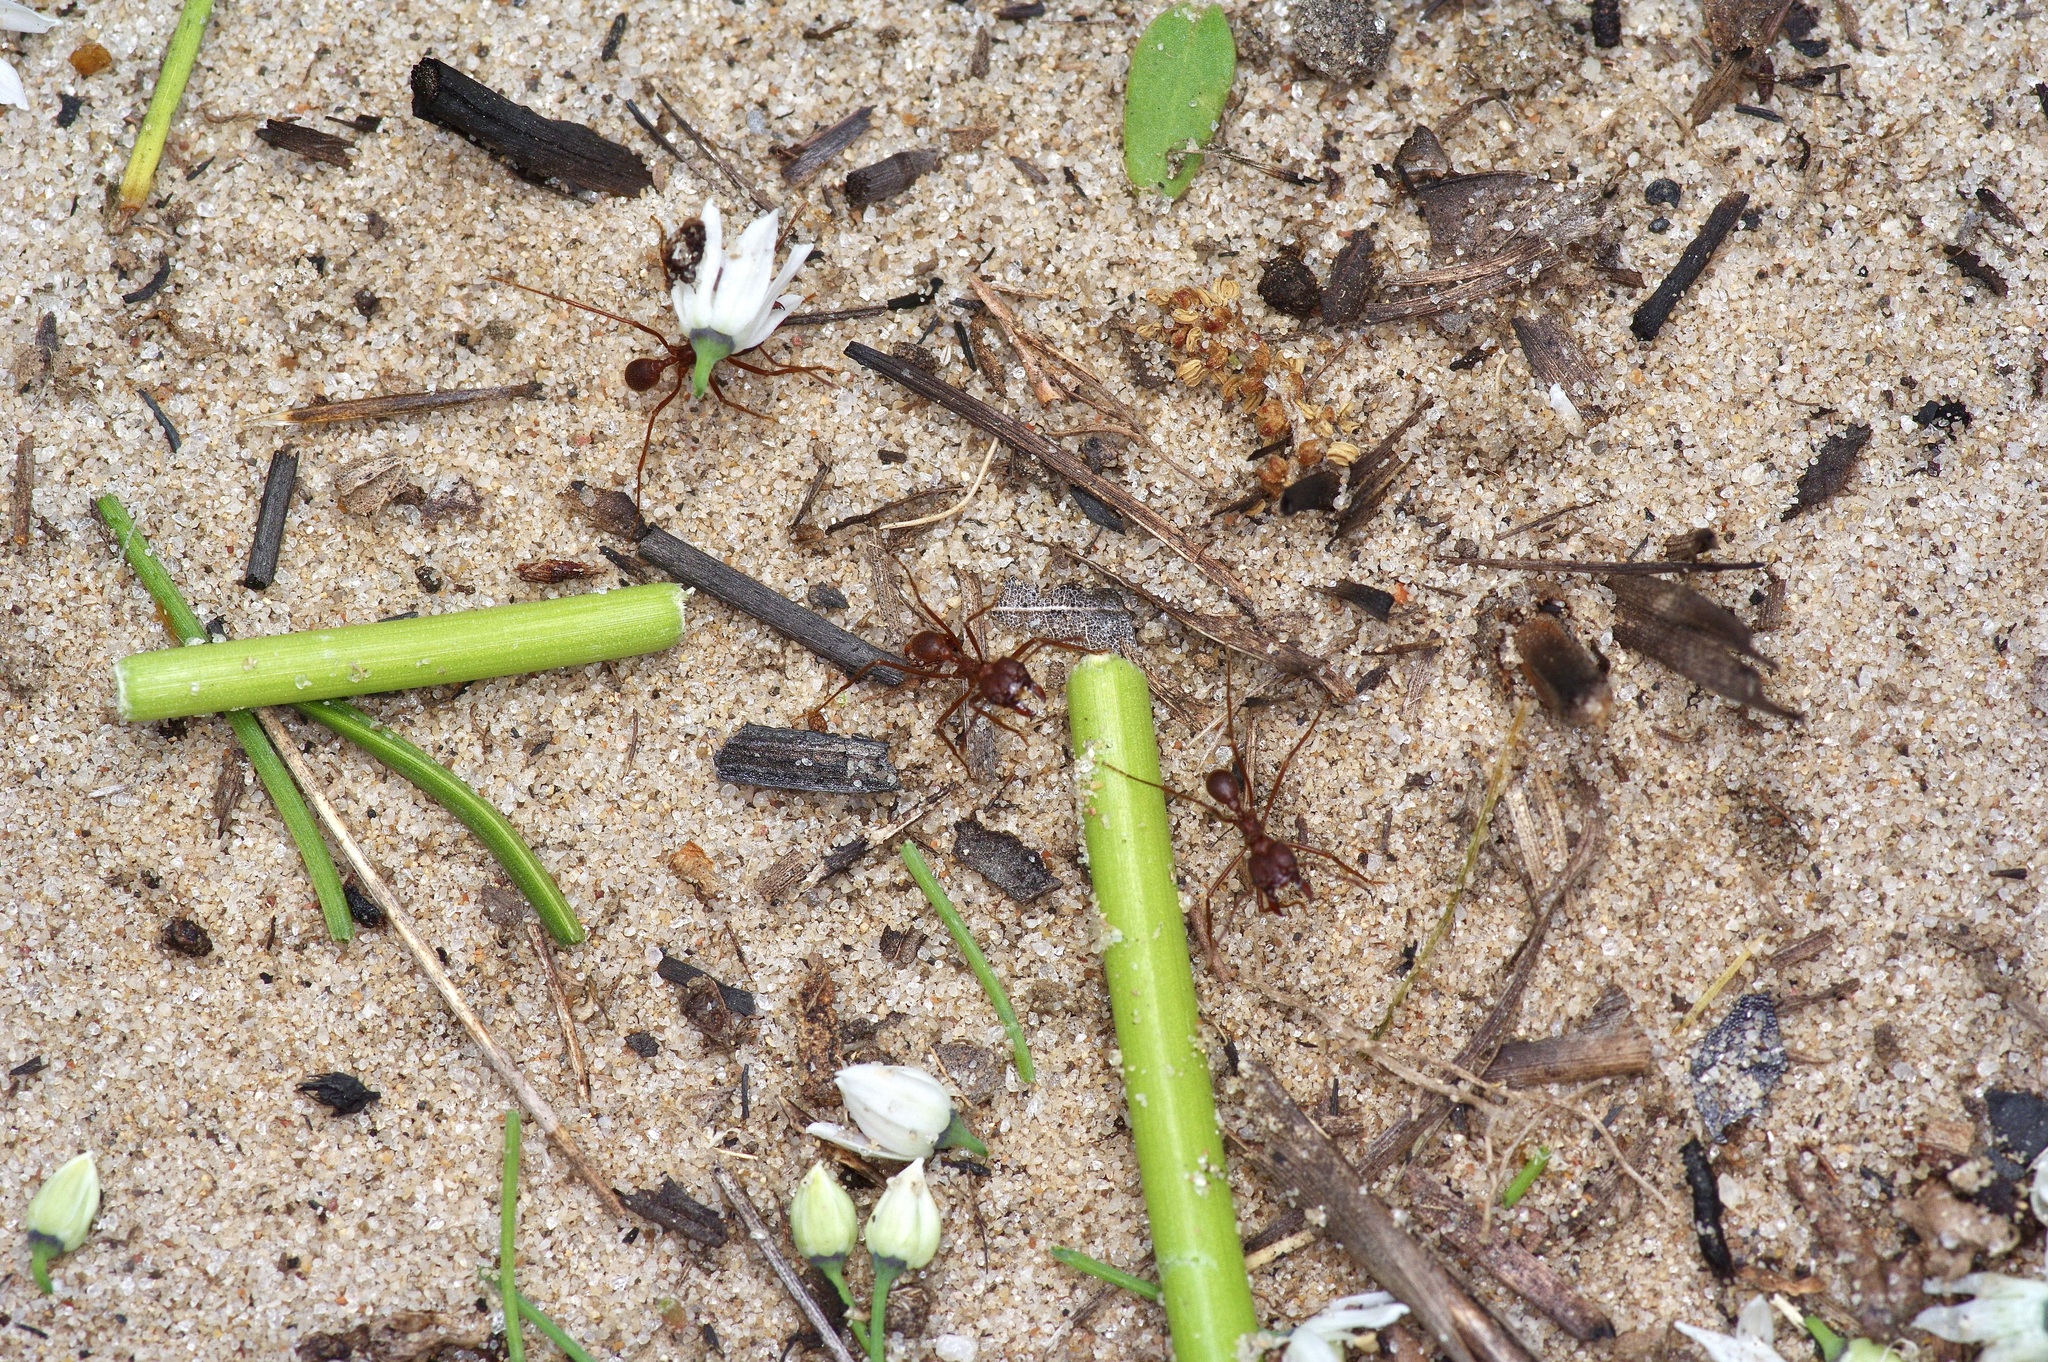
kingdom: Animalia
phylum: Arthropoda
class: Insecta
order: Hymenoptera
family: Formicidae
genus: Atta
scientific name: Atta texana
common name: Texas leafcutting ant
